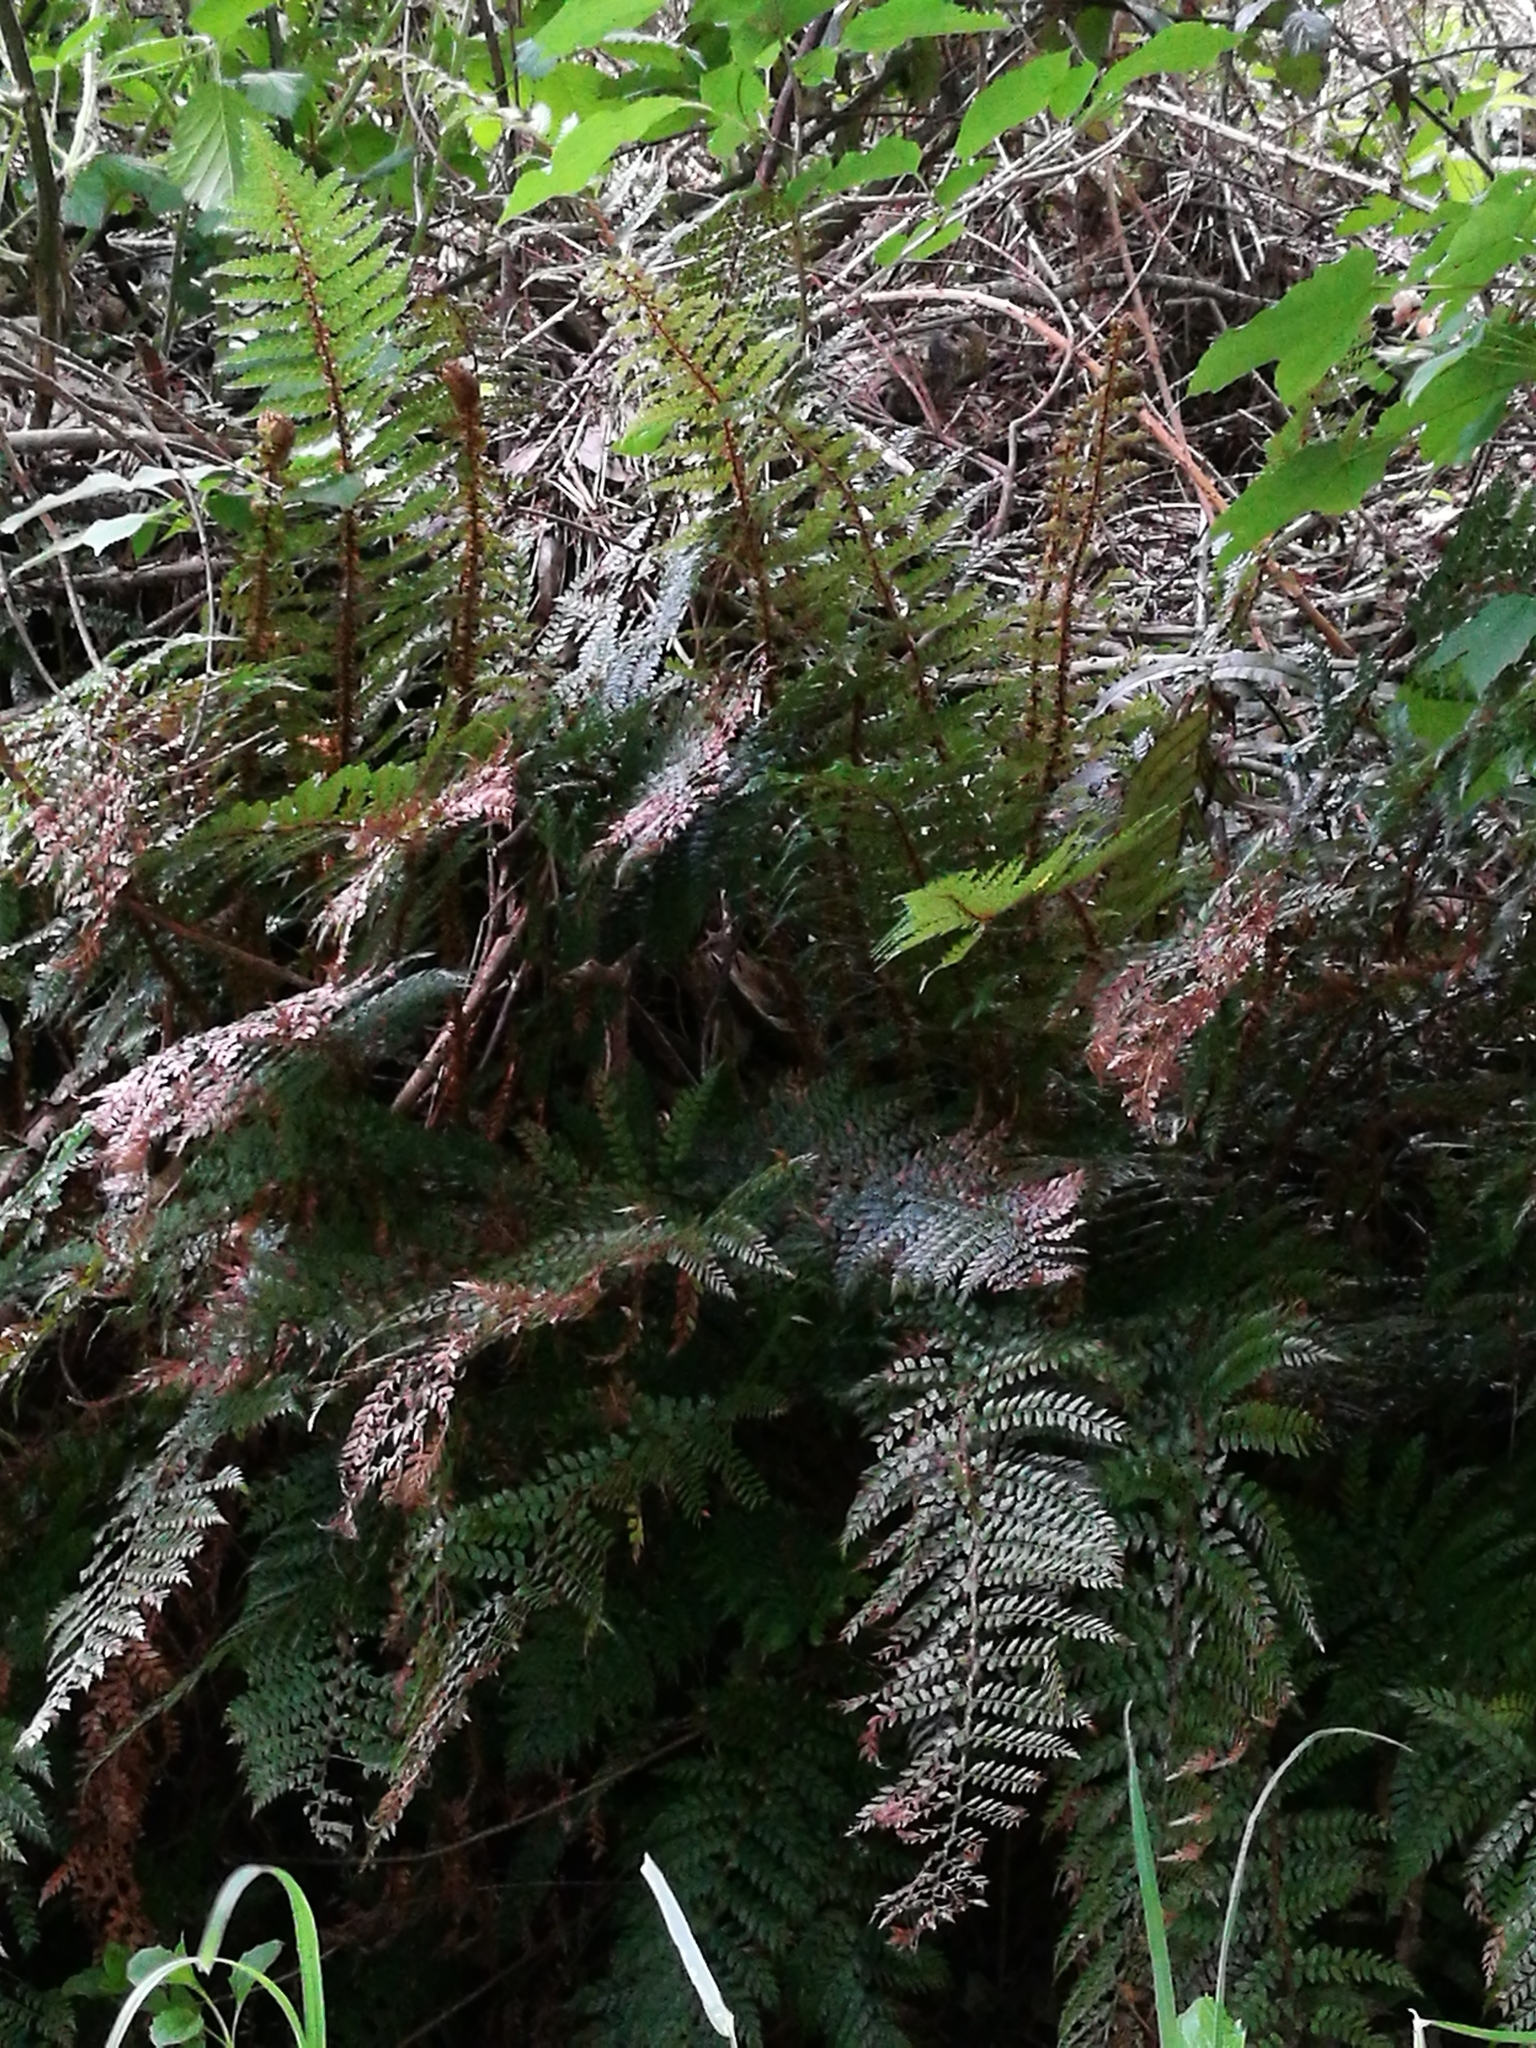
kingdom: Plantae
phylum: Tracheophyta
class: Polypodiopsida
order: Polypodiales
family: Dryopteridaceae
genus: Polystichum
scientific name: Polystichum vestitum
